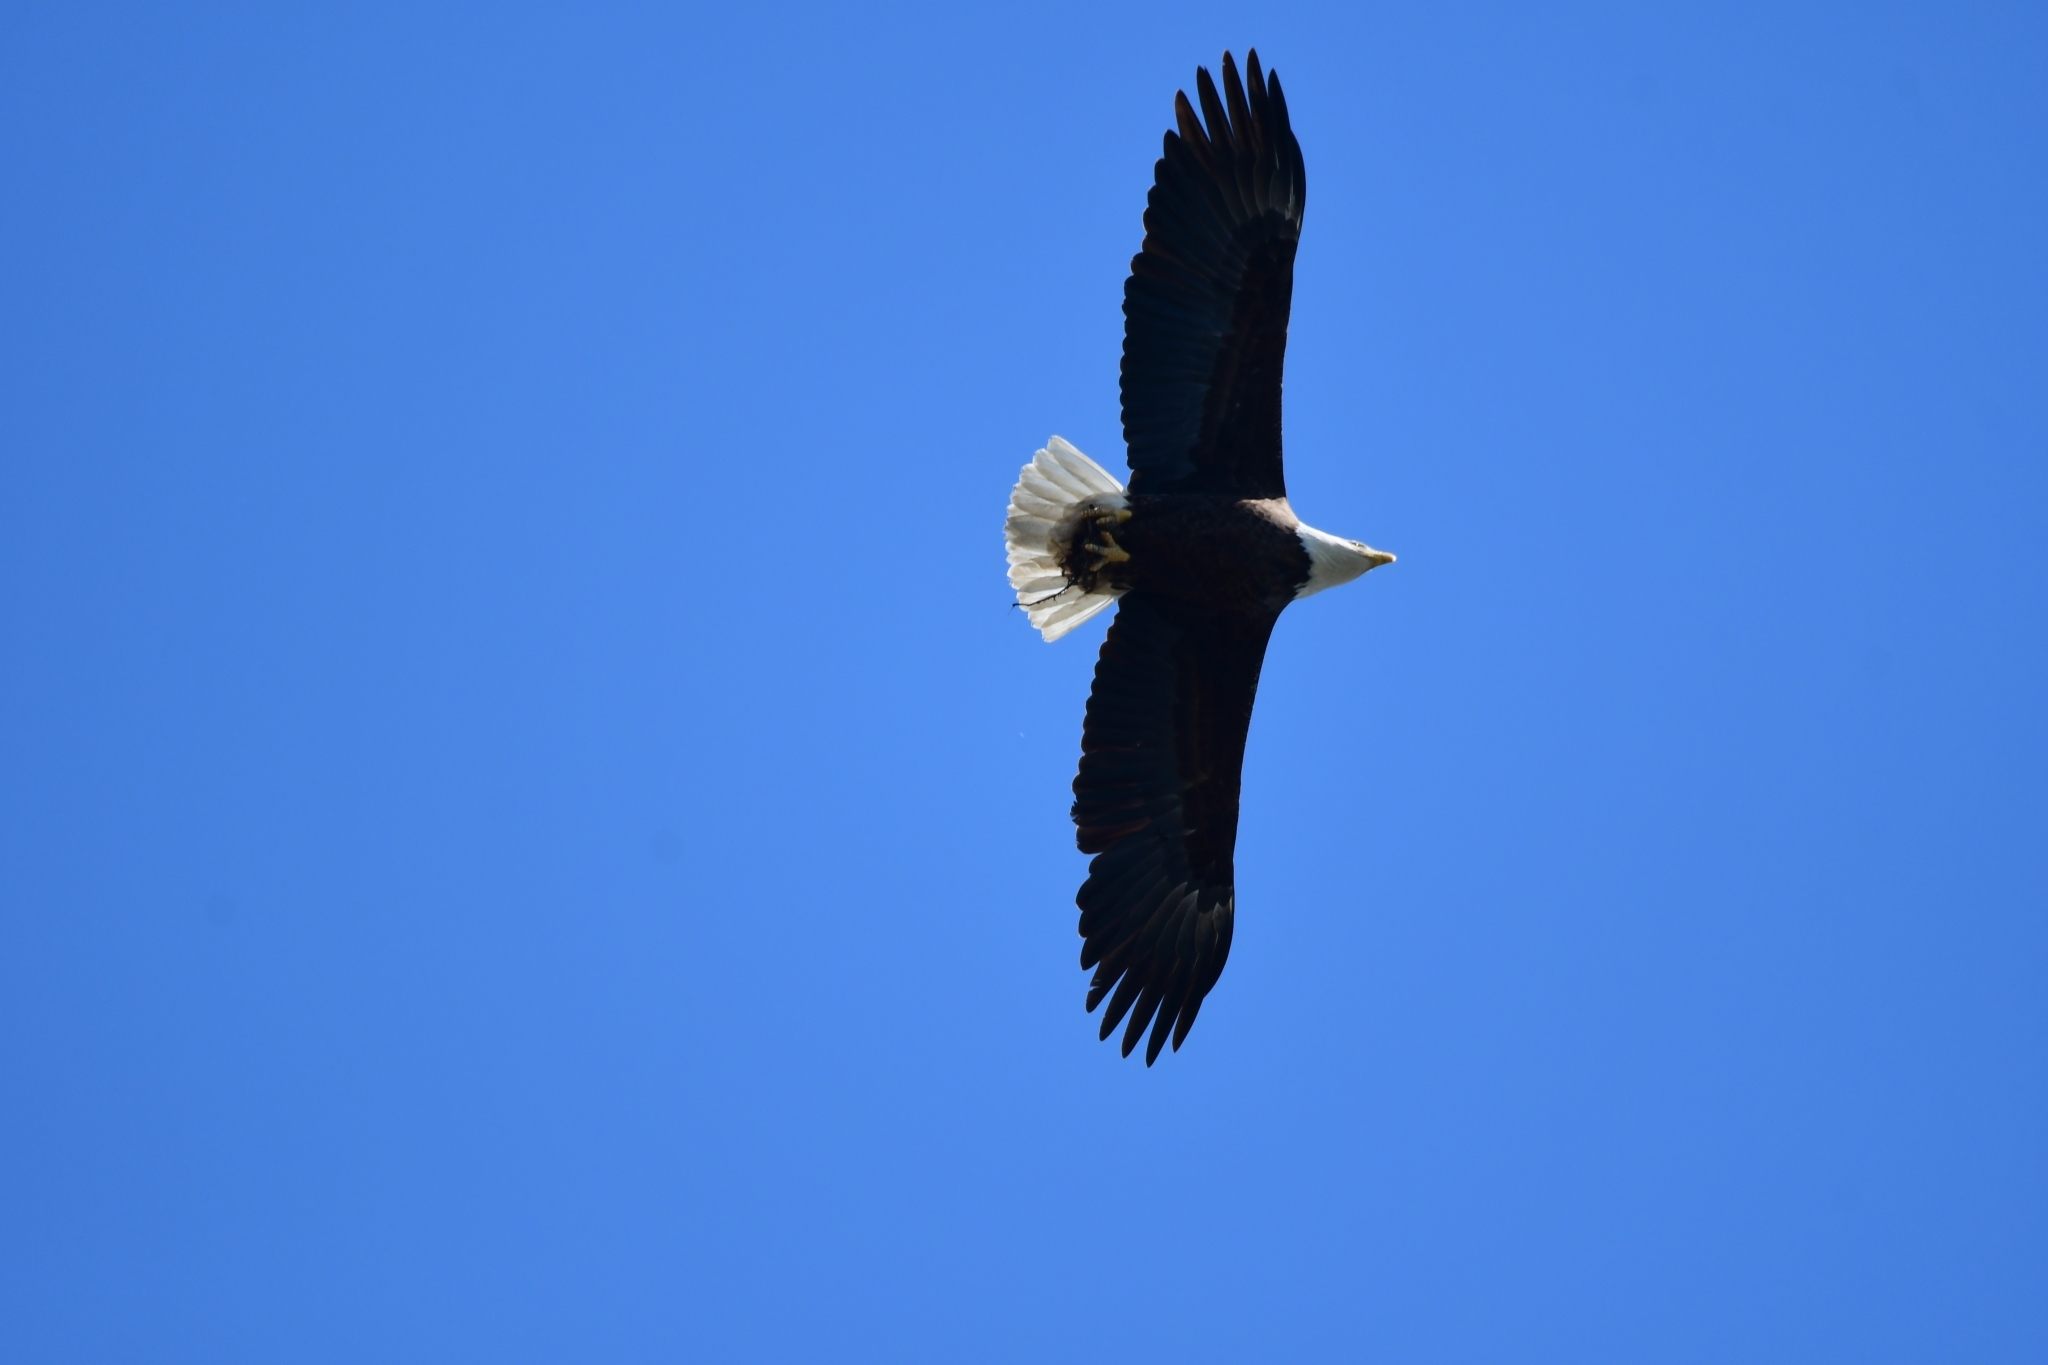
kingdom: Animalia
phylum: Chordata
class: Aves
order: Accipitriformes
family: Accipitridae
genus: Haliaeetus
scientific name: Haliaeetus leucocephalus
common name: Bald eagle
